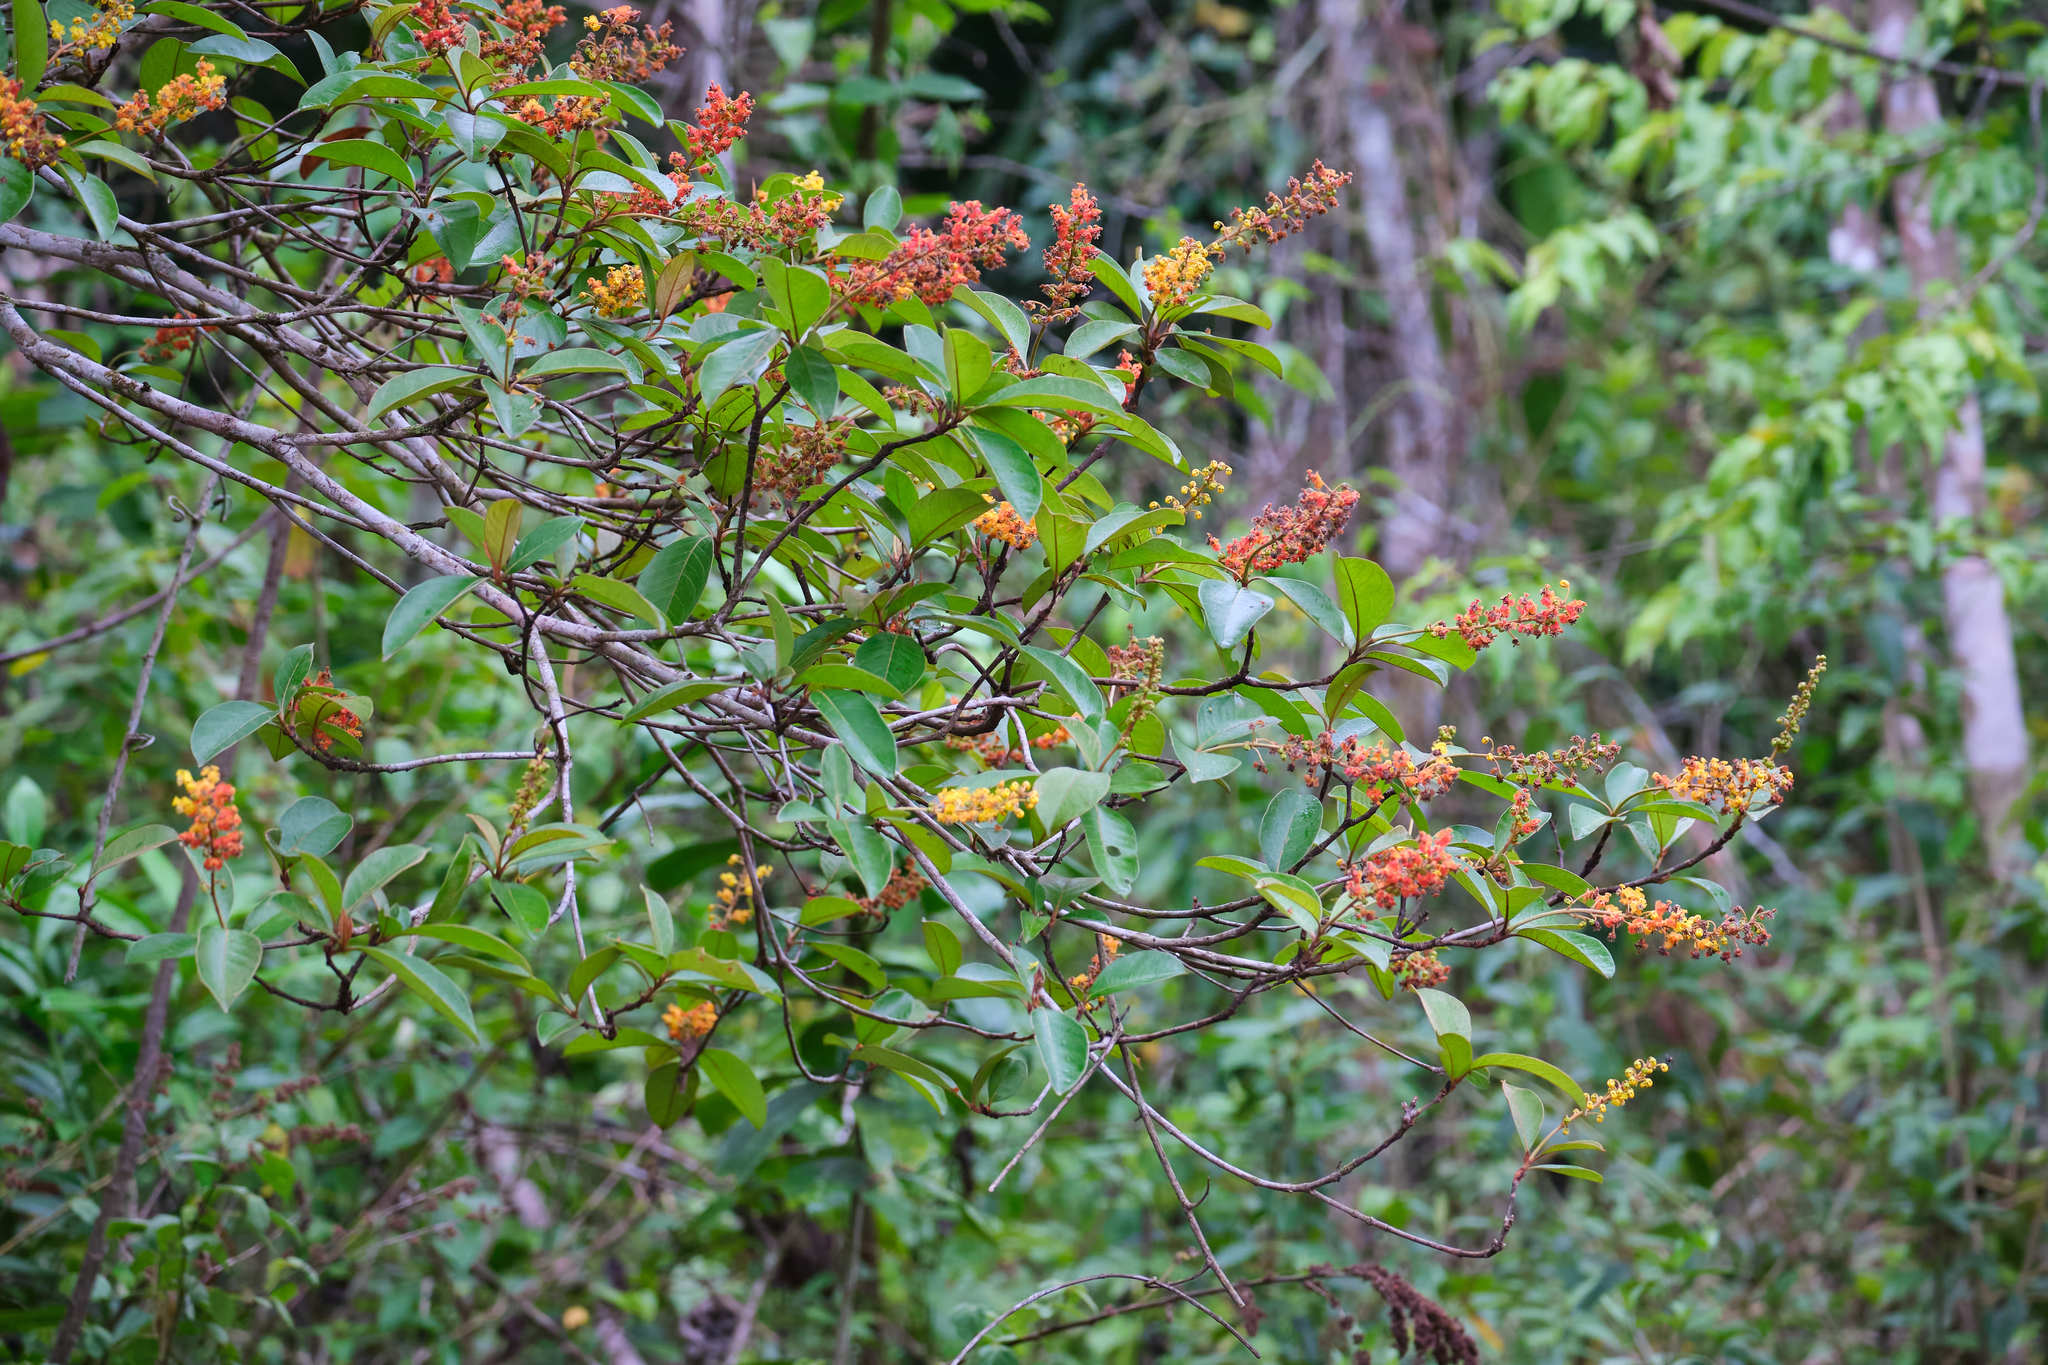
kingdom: Plantae
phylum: Tracheophyta
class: Magnoliopsida
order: Malpighiales
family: Malpighiaceae
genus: Byrsonima
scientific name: Byrsonima crassifolia
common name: Golden spoon
